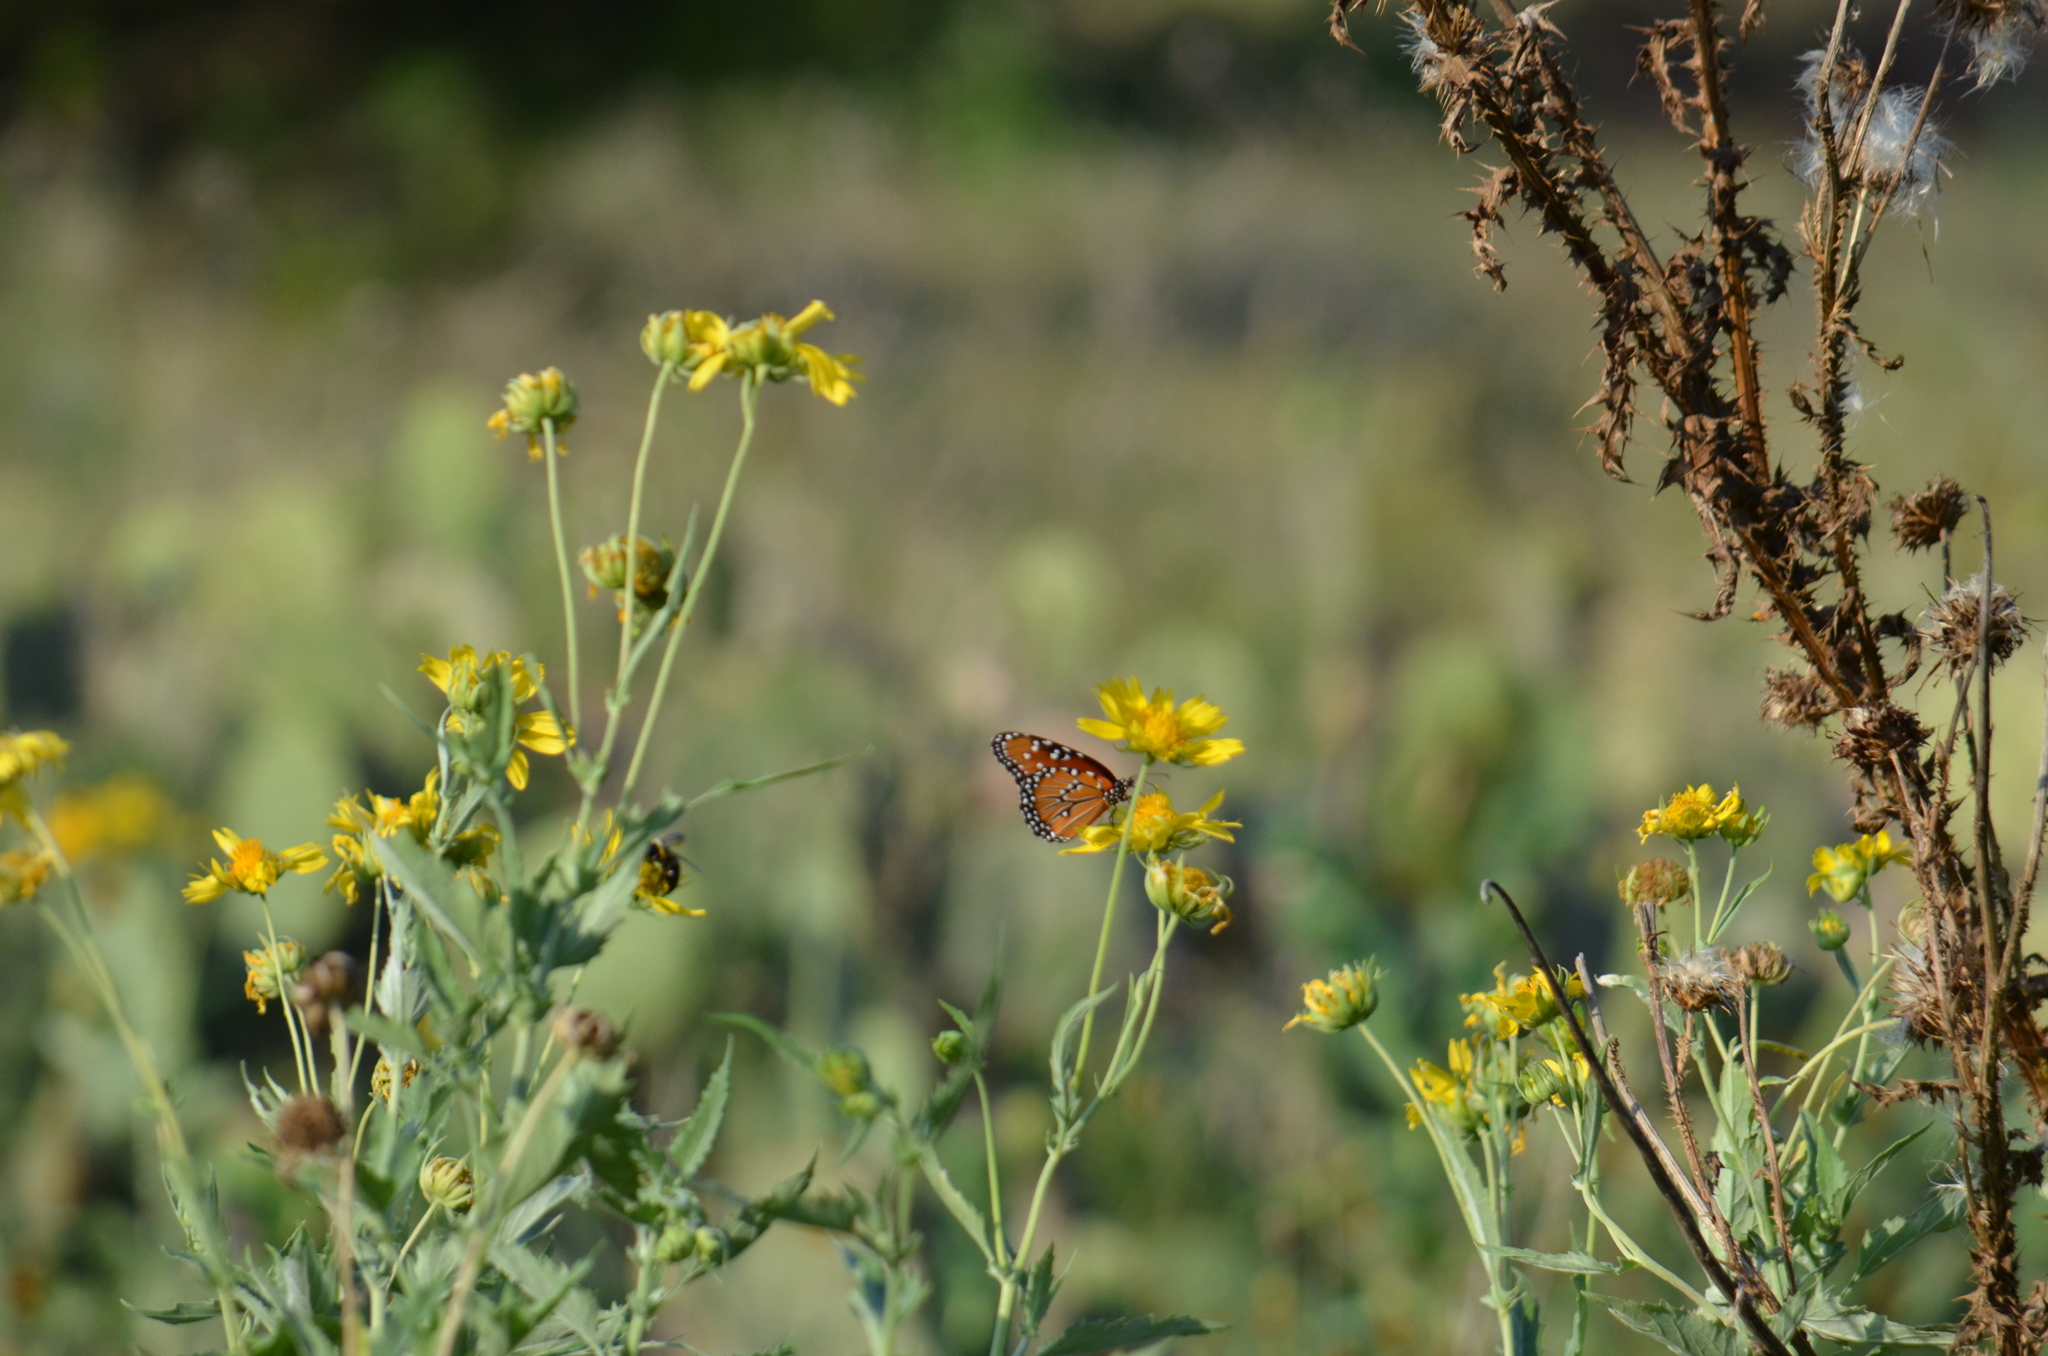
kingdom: Animalia
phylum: Arthropoda
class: Insecta
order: Lepidoptera
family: Nymphalidae
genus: Danaus
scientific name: Danaus gilippus
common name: Queen
